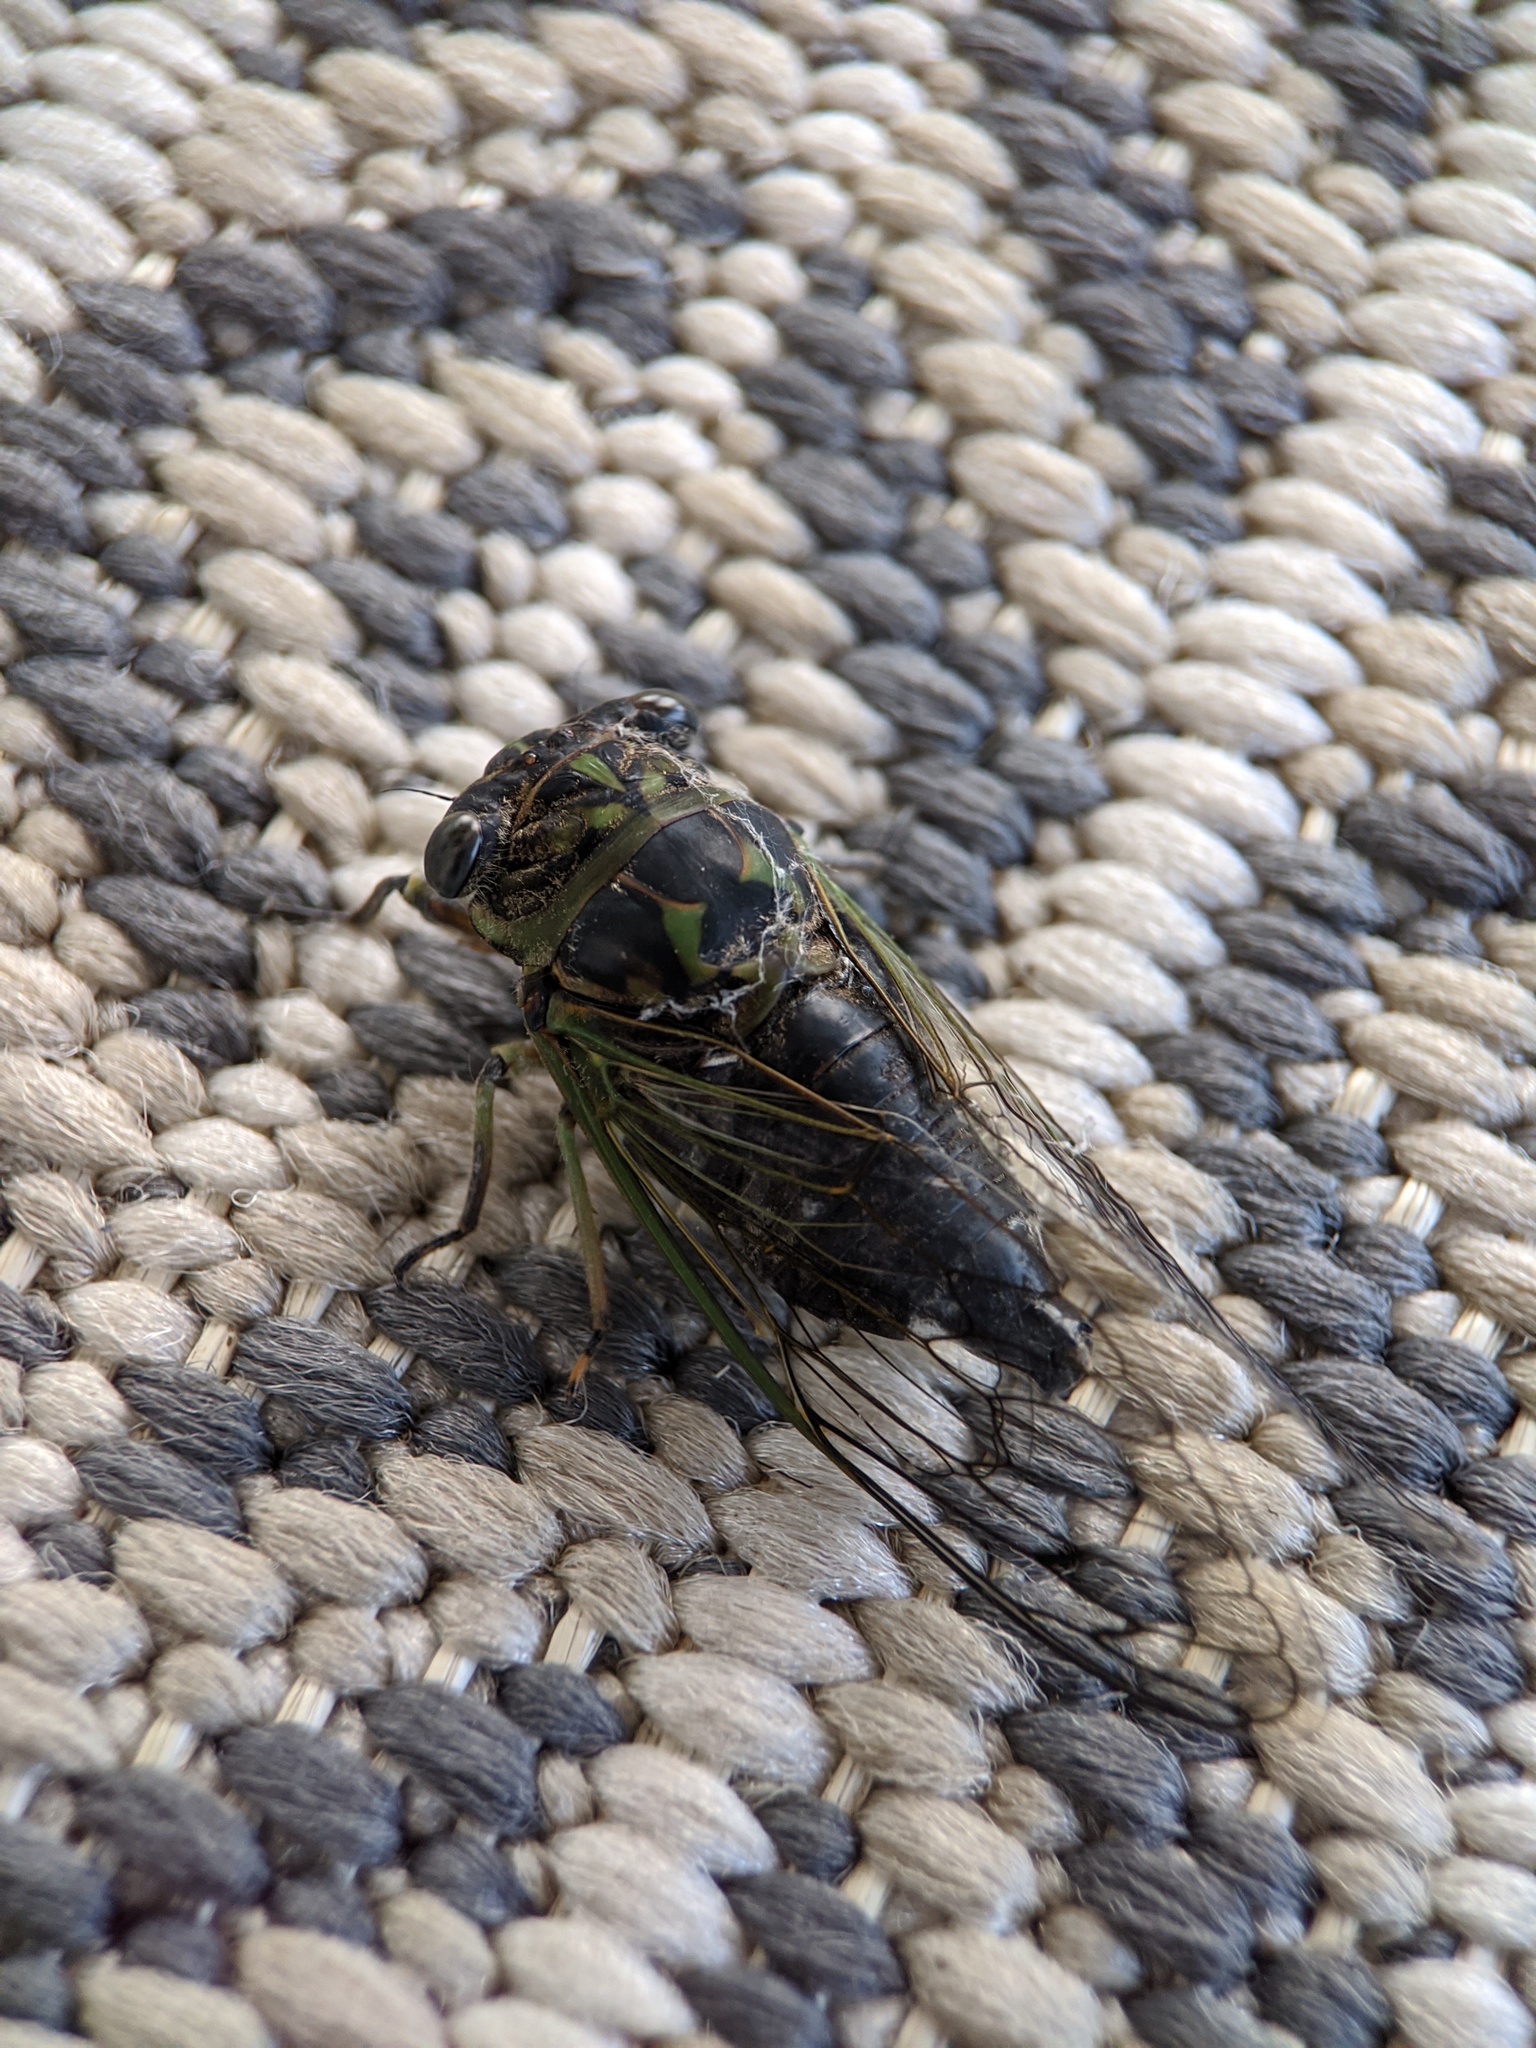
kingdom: Animalia
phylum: Arthropoda
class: Insecta
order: Hemiptera
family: Cicadidae
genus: Neotibicen
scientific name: Neotibicen canicularis
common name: God-day cicada
